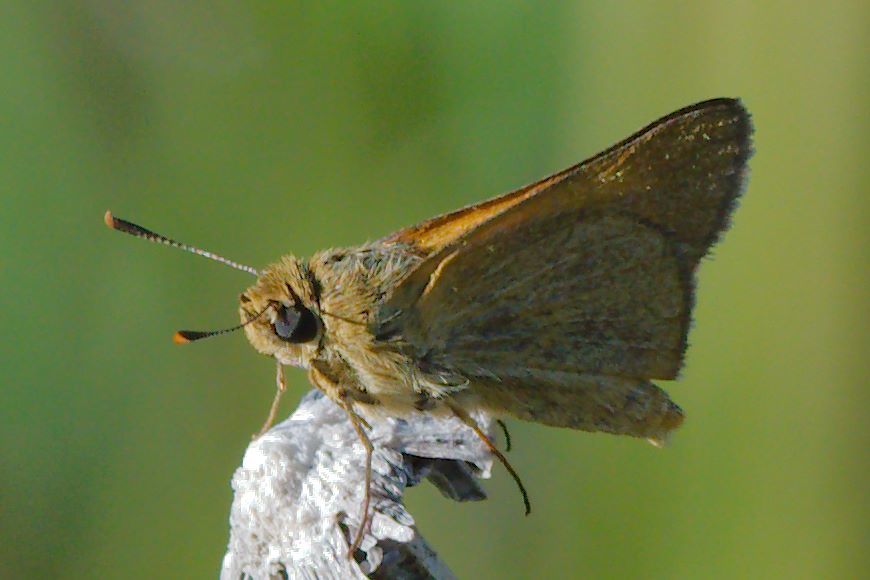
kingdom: Animalia
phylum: Arthropoda
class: Insecta
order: Lepidoptera
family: Hesperiidae
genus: Atrytone
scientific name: Atrytone arogos
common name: Arogos skipper
